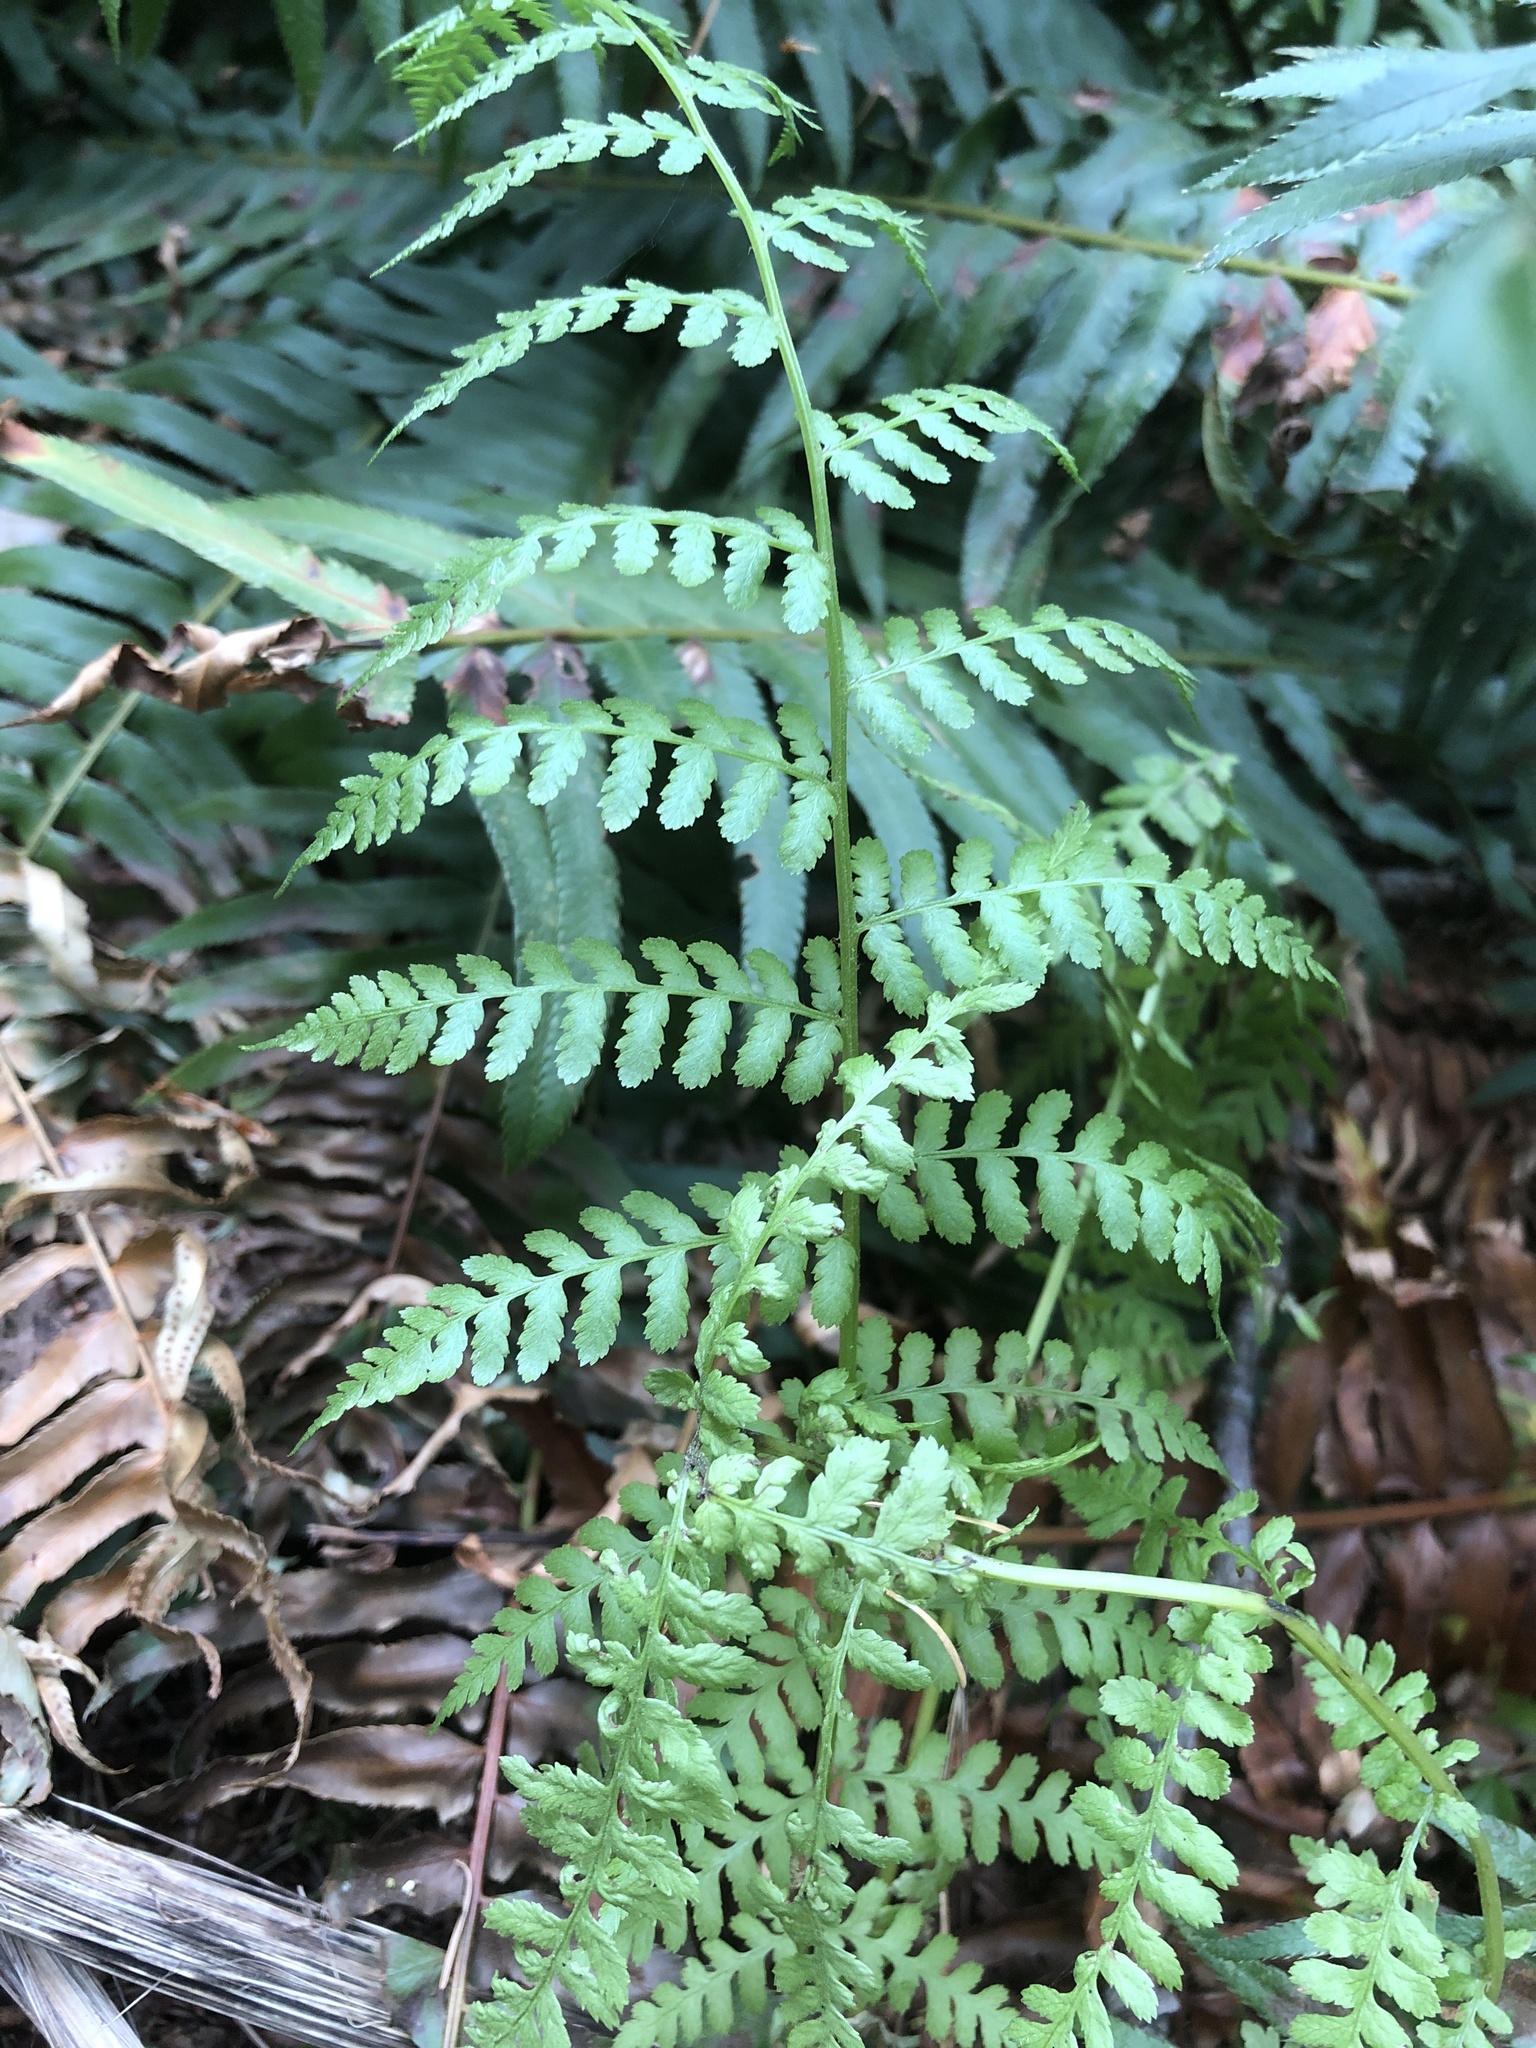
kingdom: Plantae
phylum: Tracheophyta
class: Polypodiopsida
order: Polypodiales
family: Athyriaceae
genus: Athyrium
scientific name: Athyrium filix-femina
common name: Lady fern
